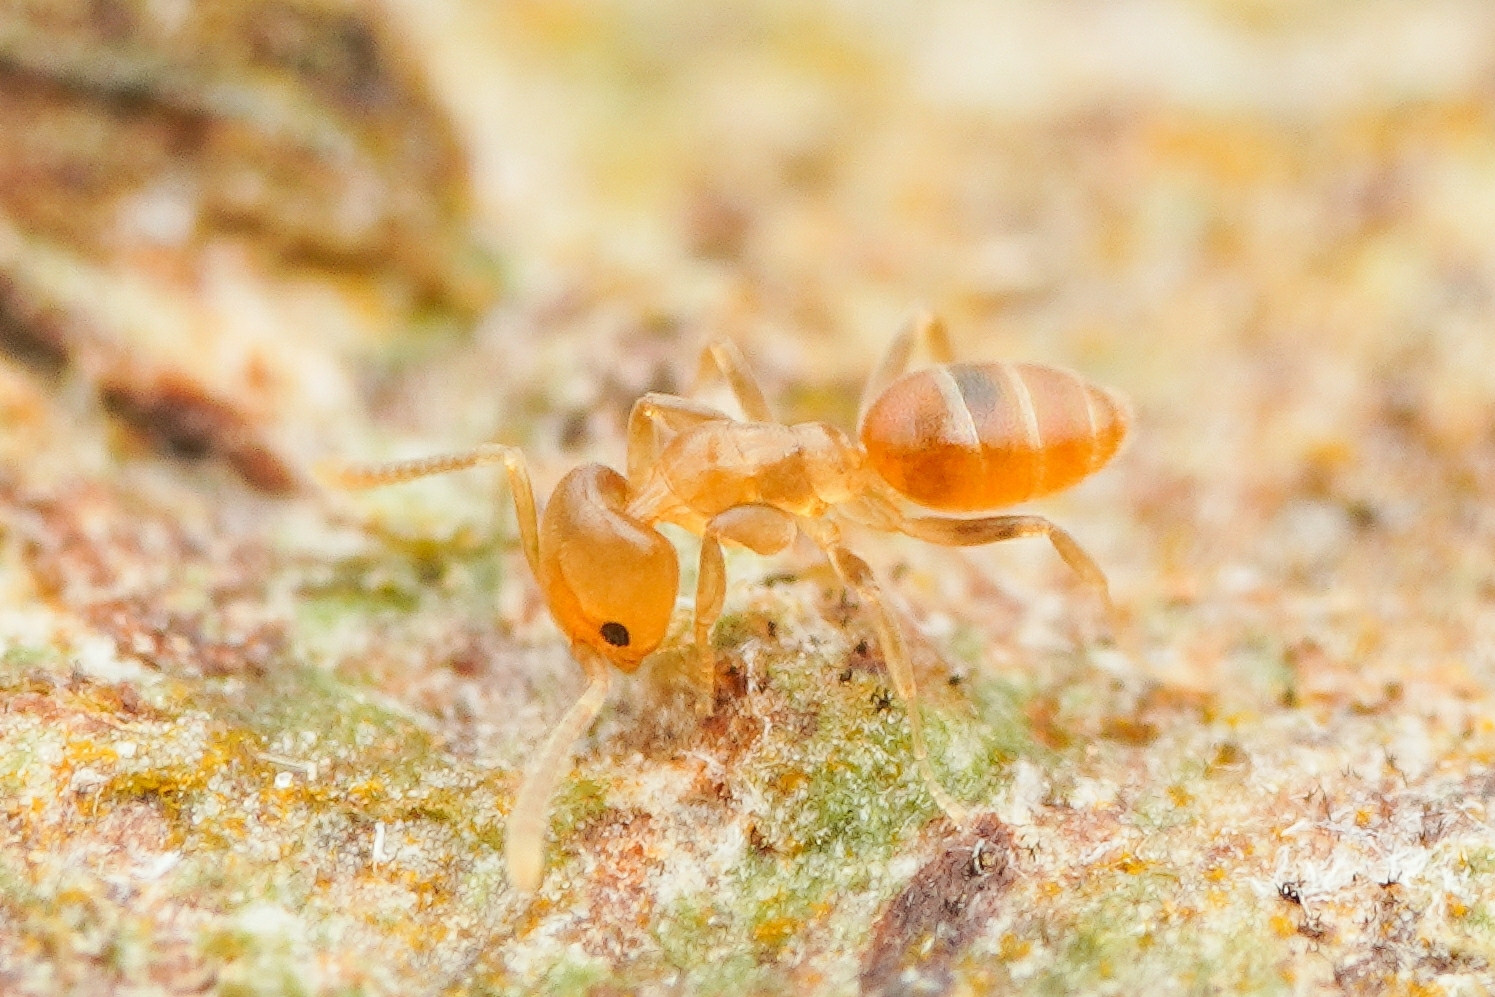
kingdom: Animalia
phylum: Arthropoda
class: Insecta
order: Hymenoptera
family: Formicidae
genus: Tapinoma
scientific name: Tapinoma
